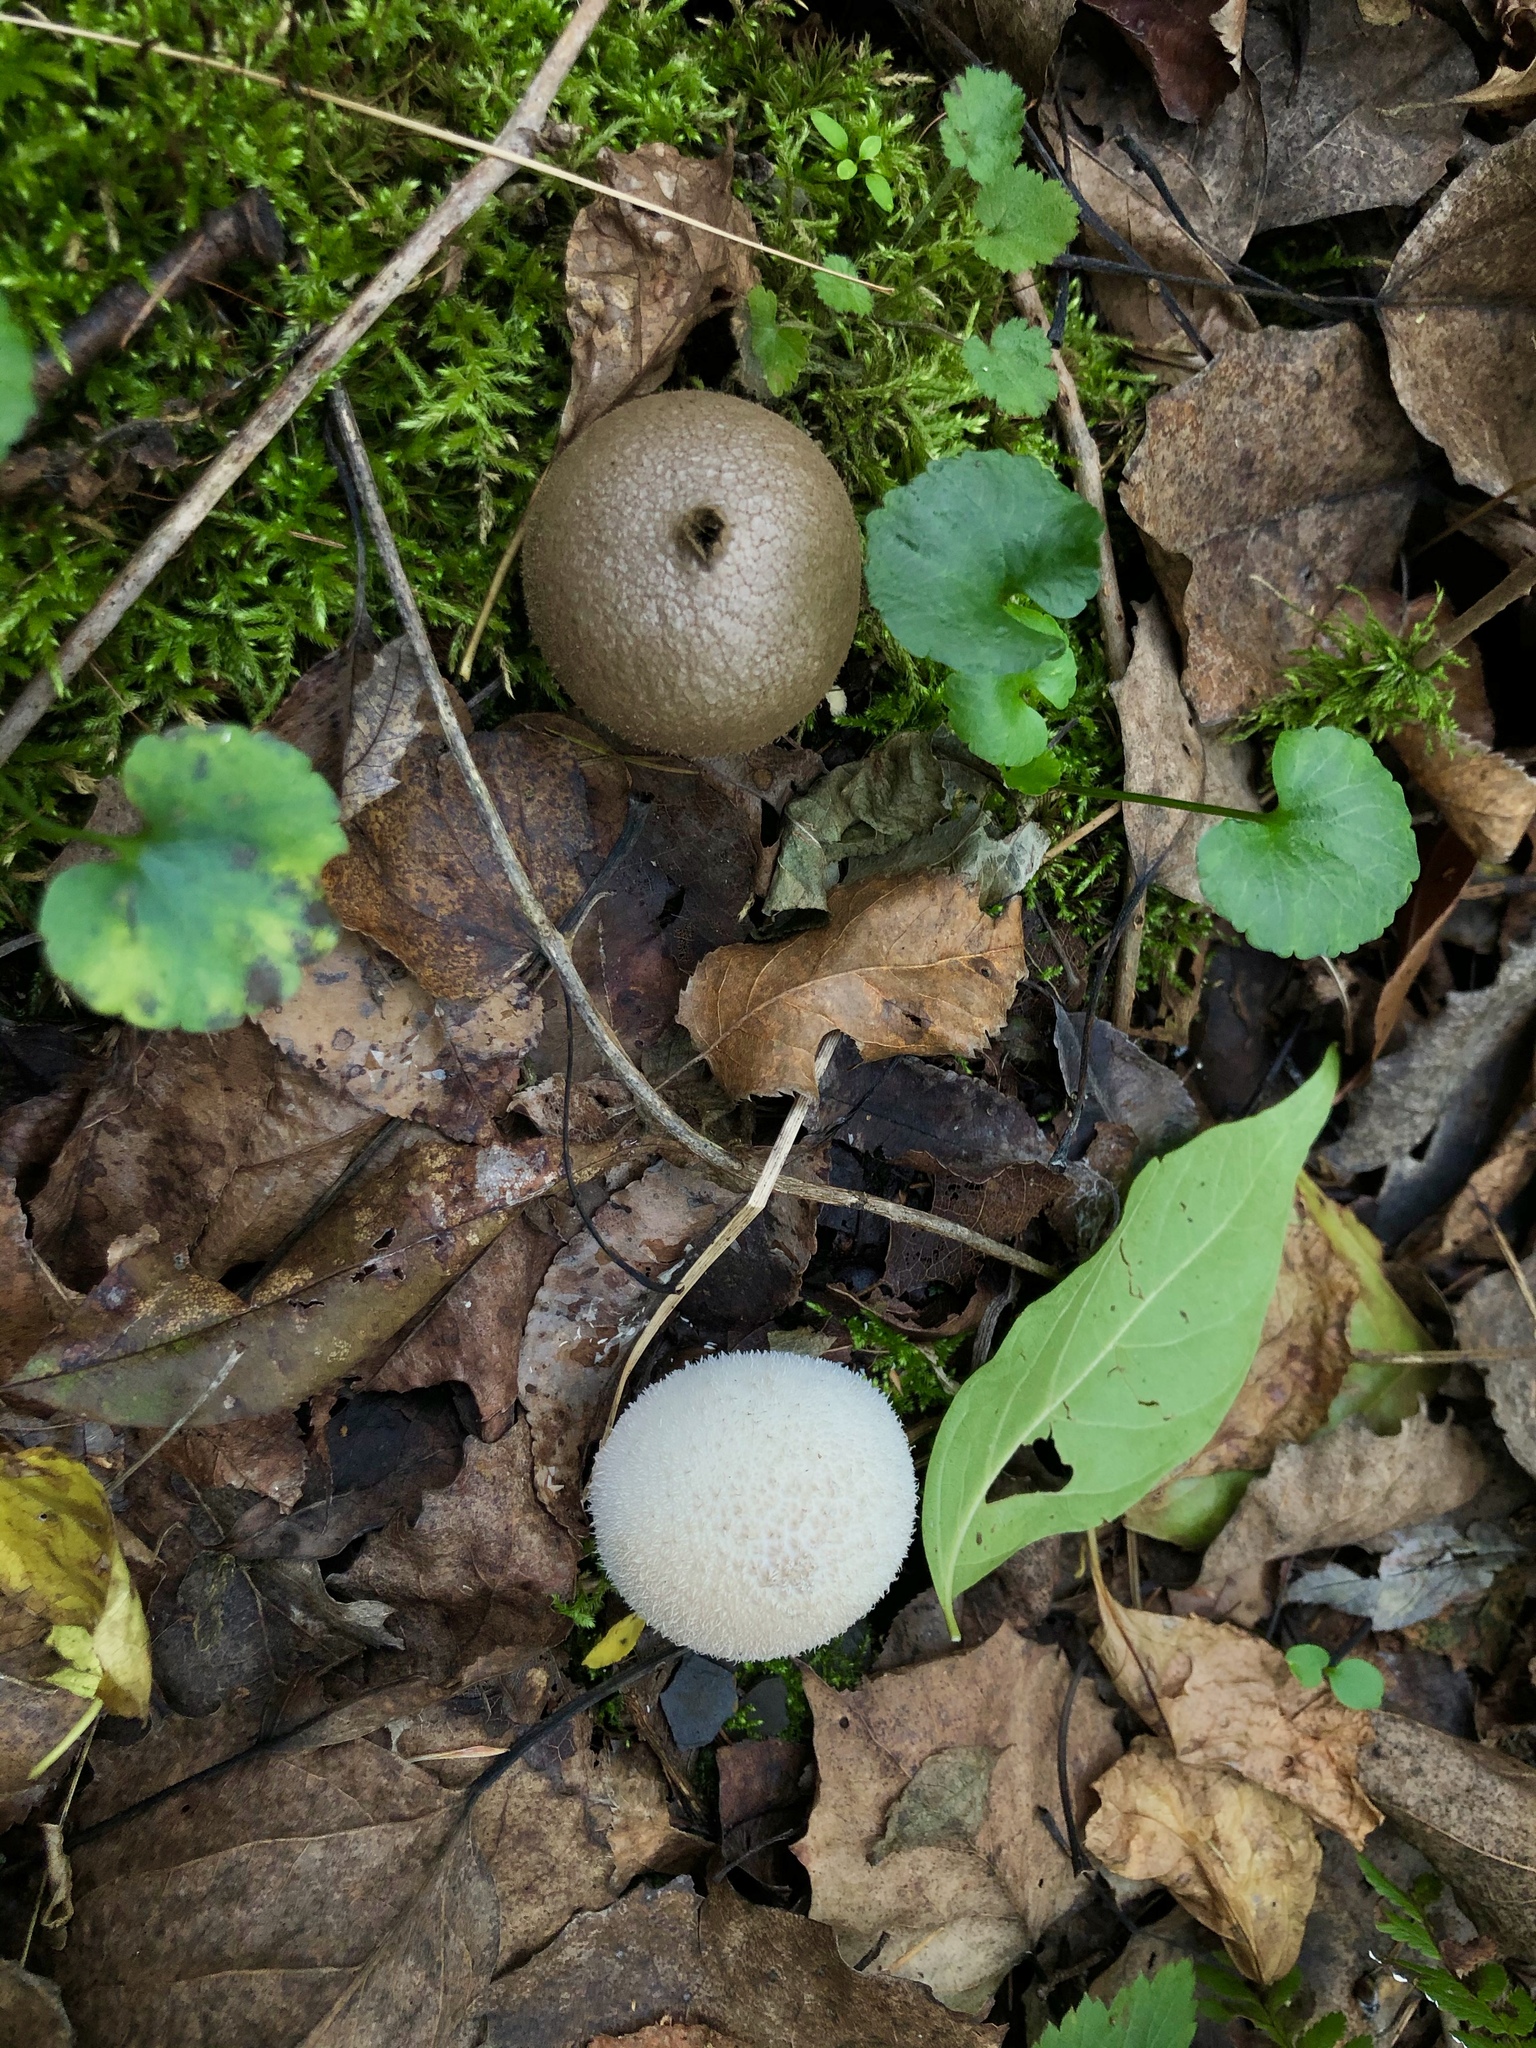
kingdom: Fungi
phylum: Basidiomycota
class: Agaricomycetes
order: Agaricales
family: Lycoperdaceae
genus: Lycoperdon
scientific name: Lycoperdon perlatum
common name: Common puffball
